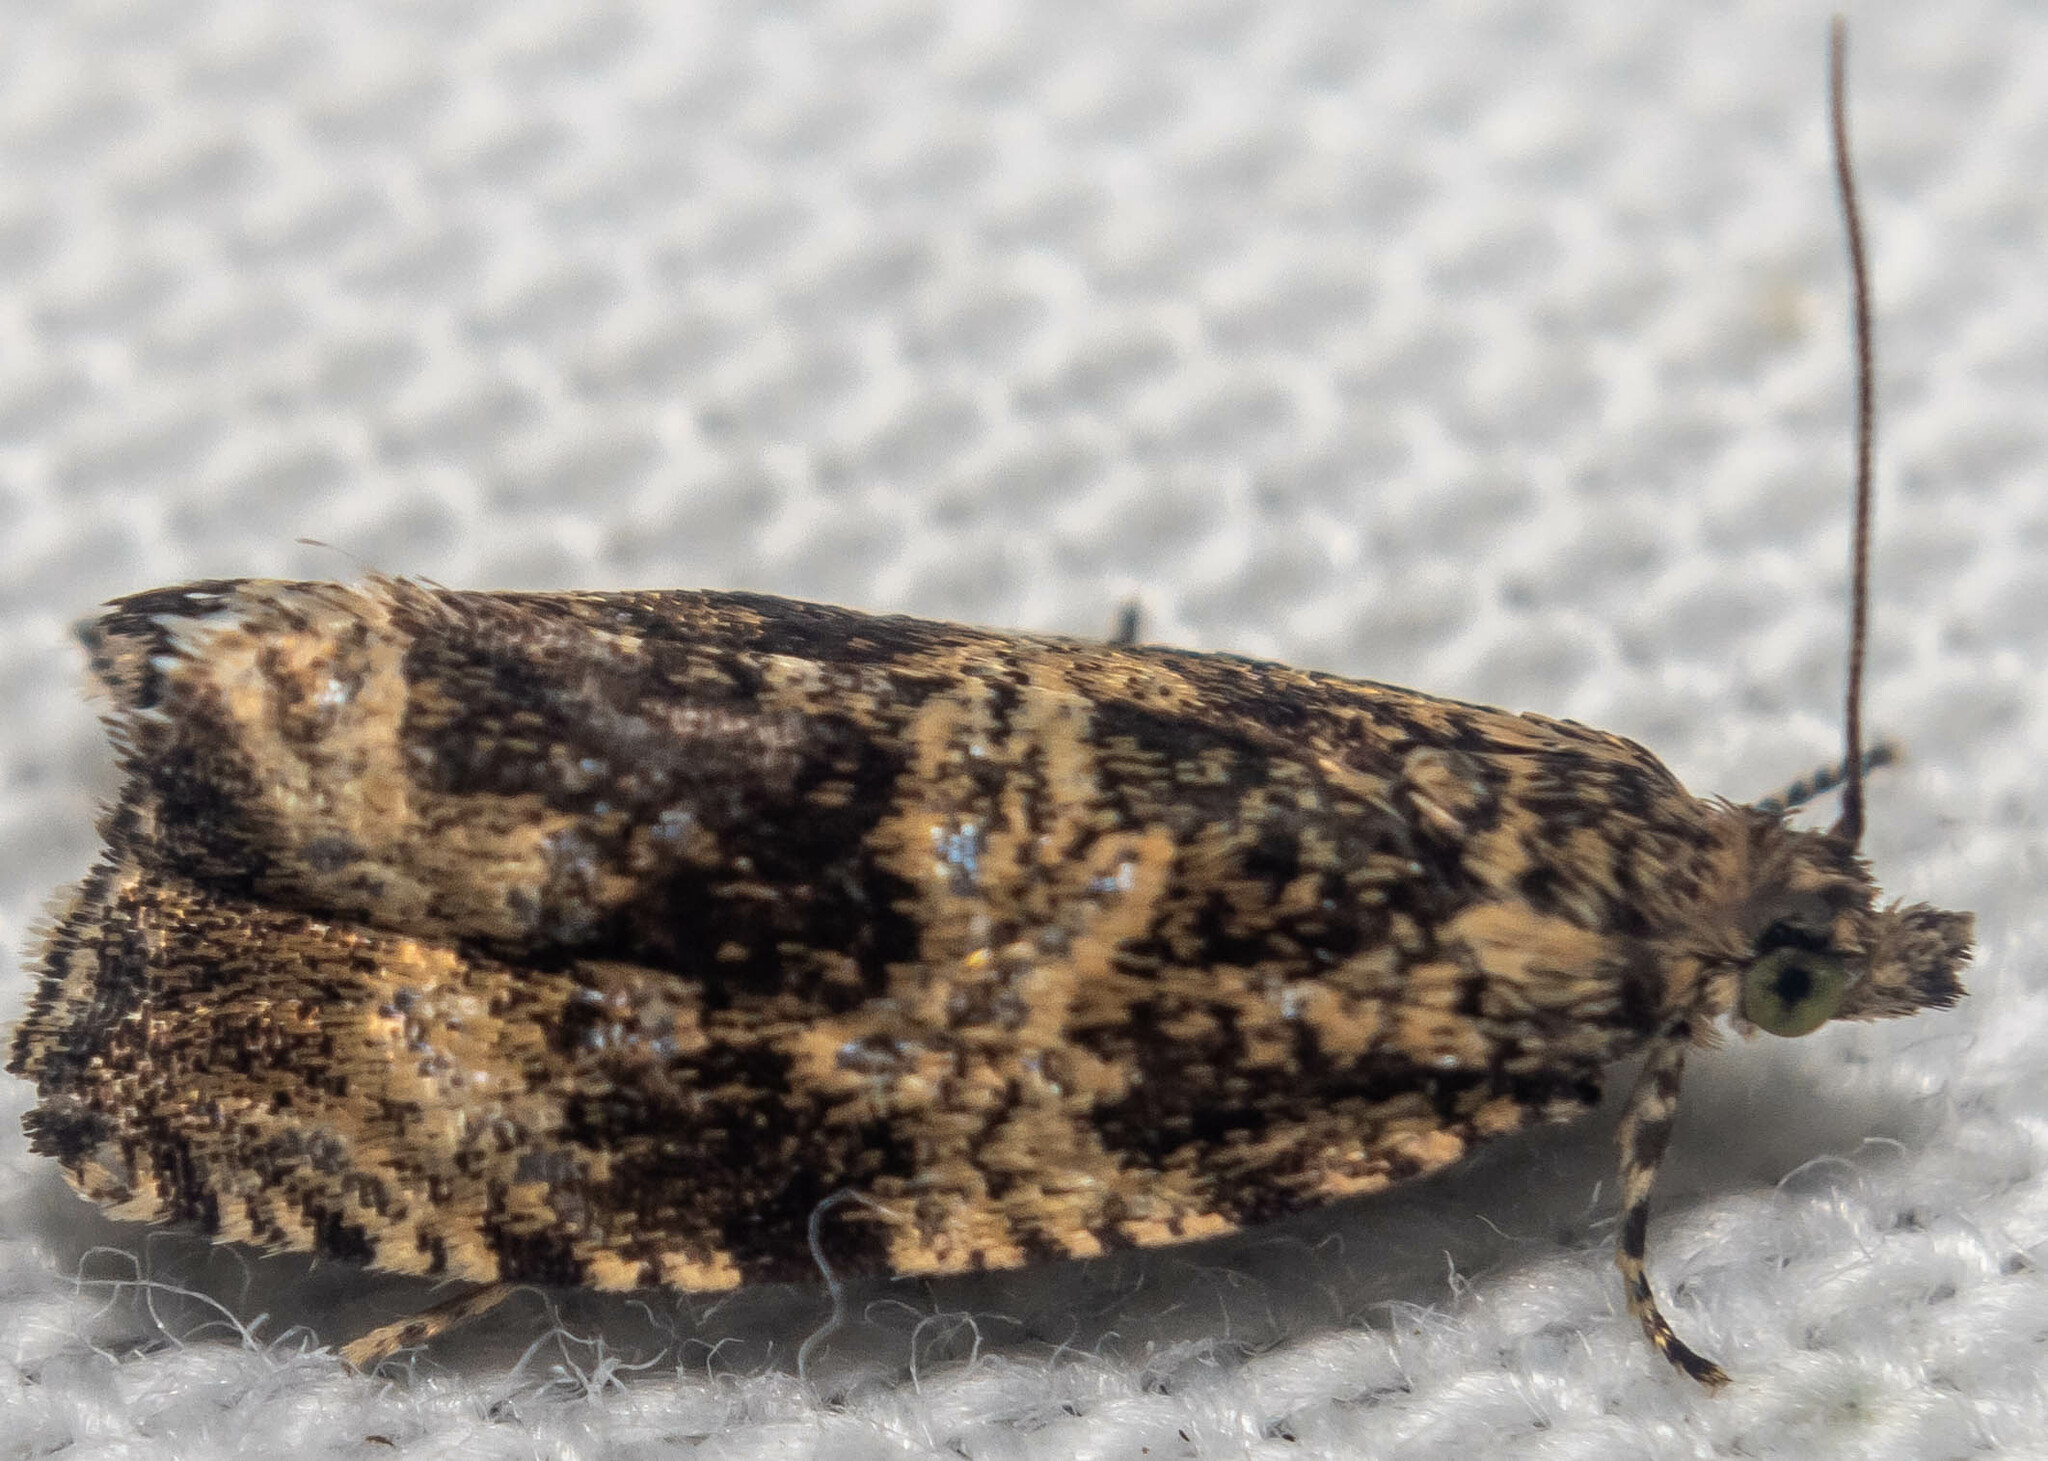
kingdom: Animalia
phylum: Arthropoda
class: Insecta
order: Lepidoptera
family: Tortricidae
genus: Syricoris
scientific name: Syricoris lacunana
